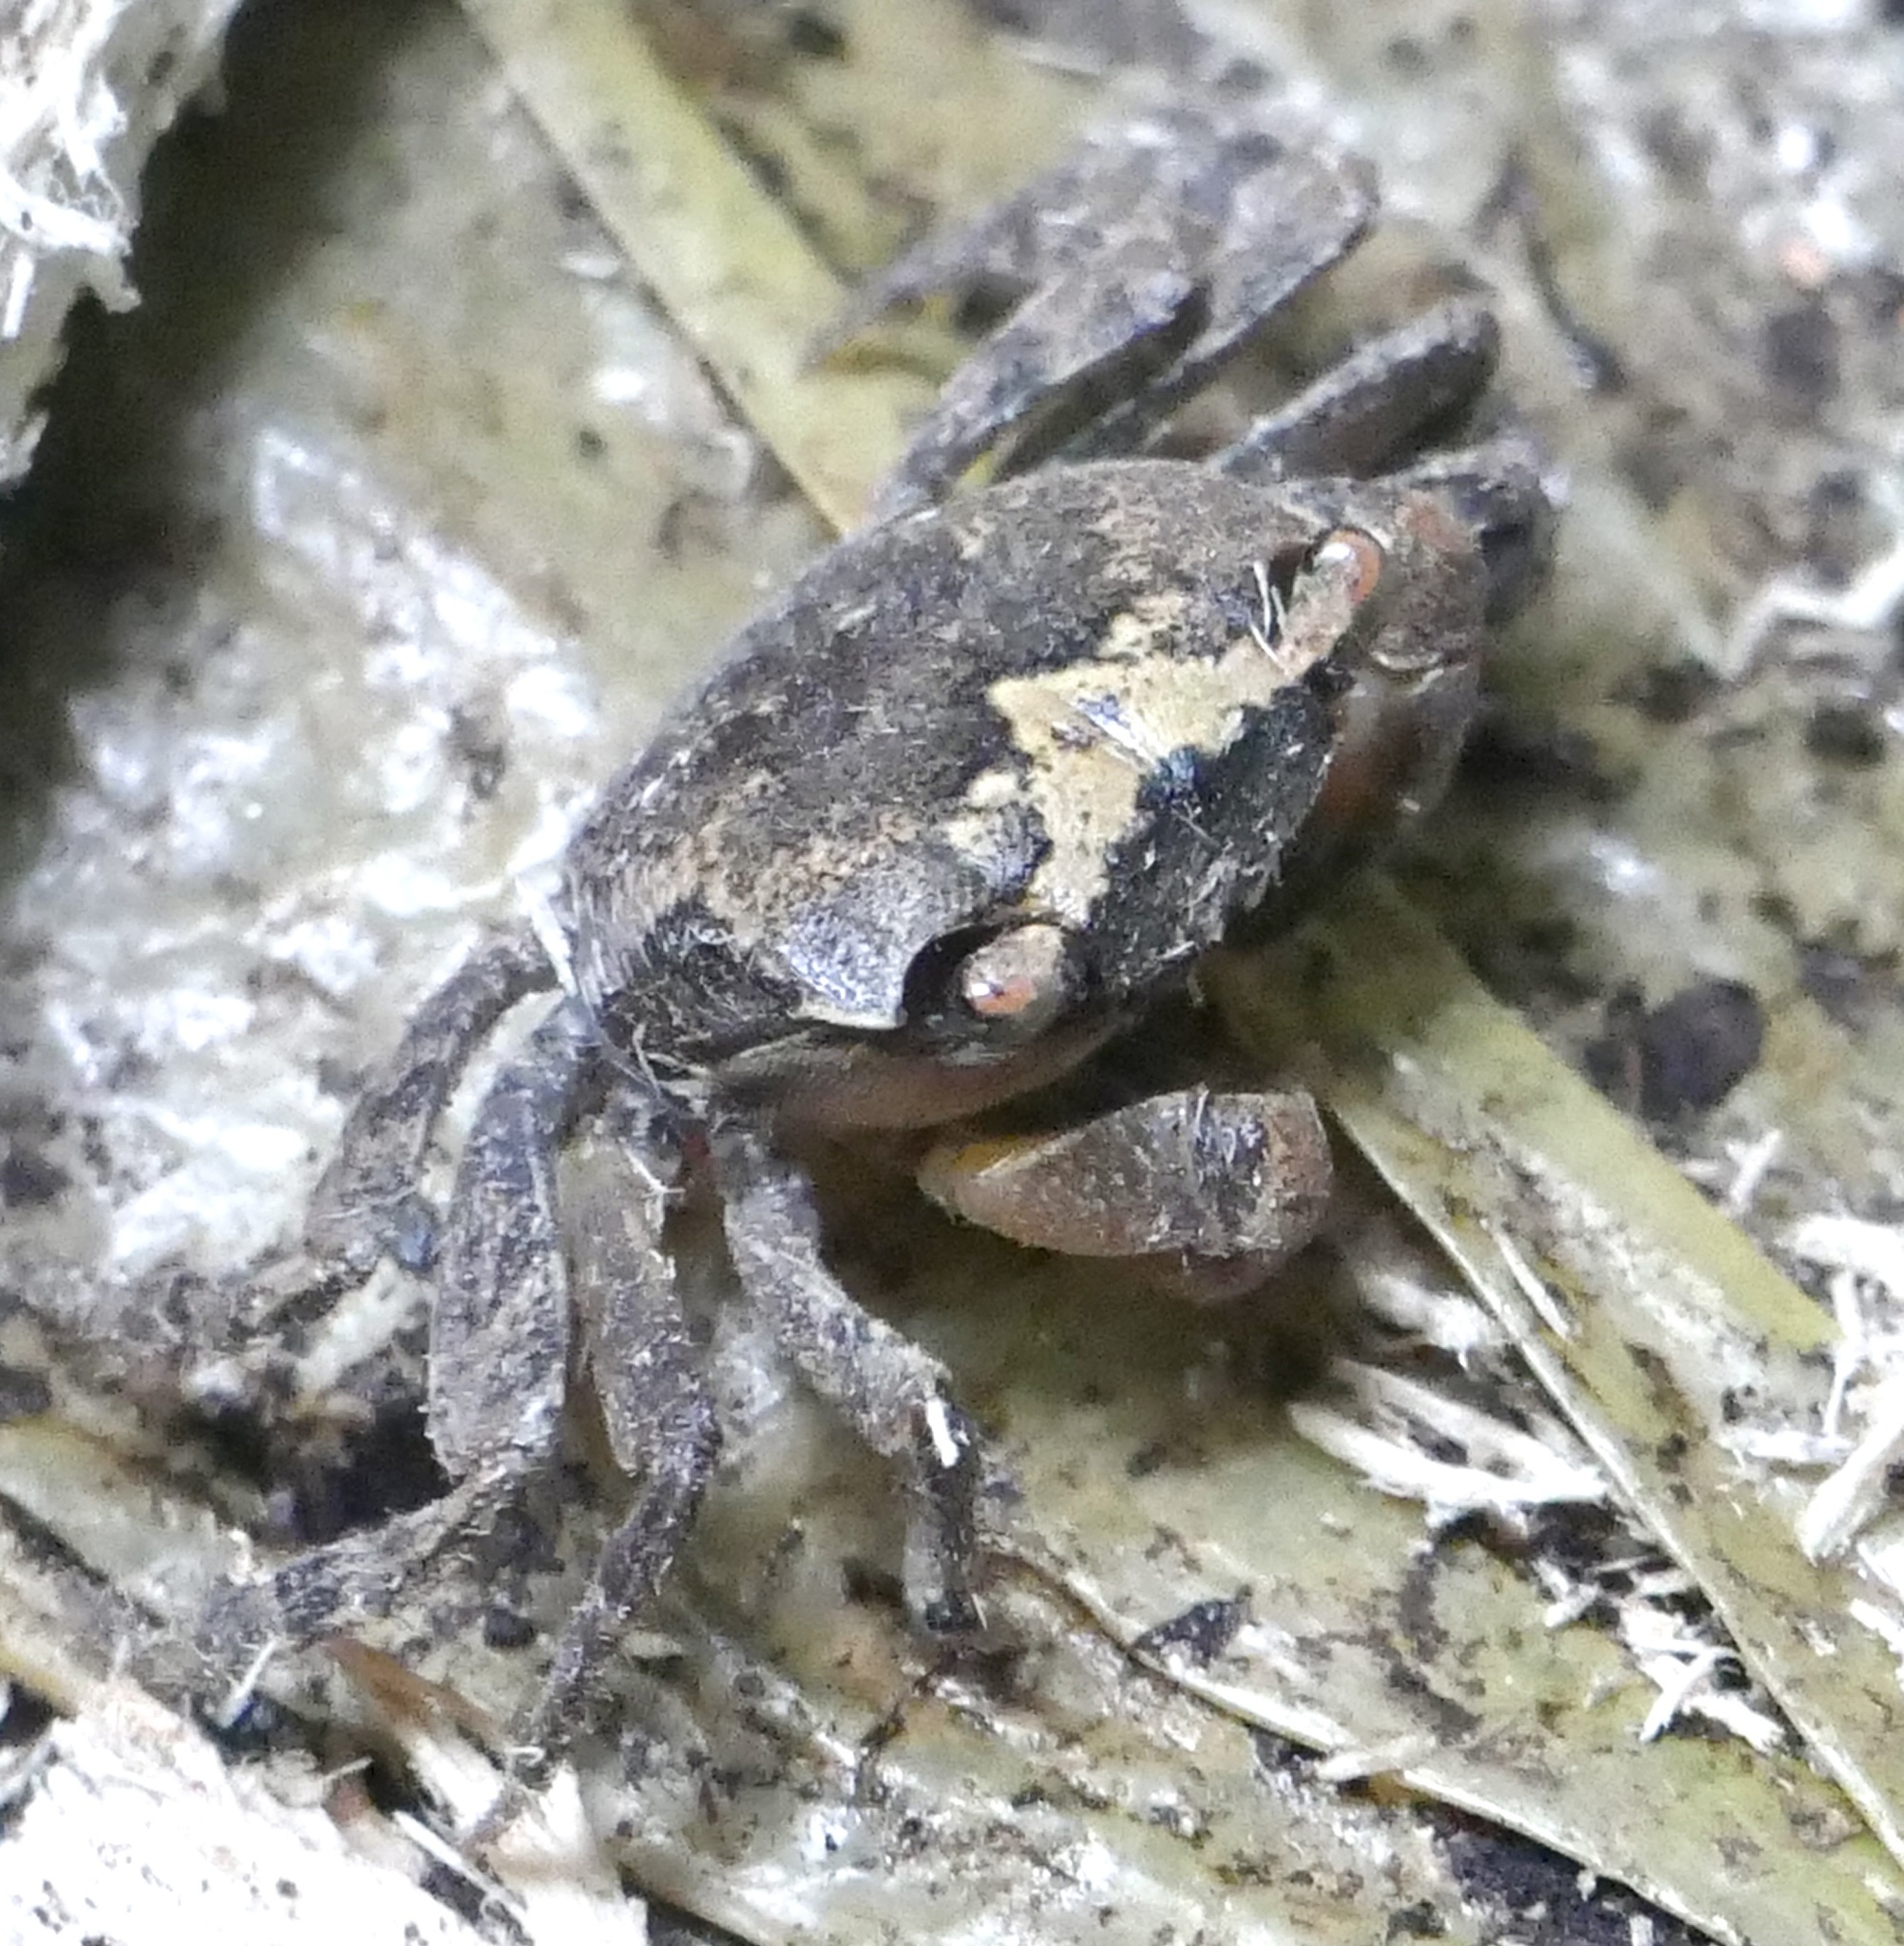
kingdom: Animalia
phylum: Arthropoda
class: Malacostraca
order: Decapoda
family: Sesarmidae
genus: Metasesarma
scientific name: Metasesarma aubryi
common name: Apple crab
